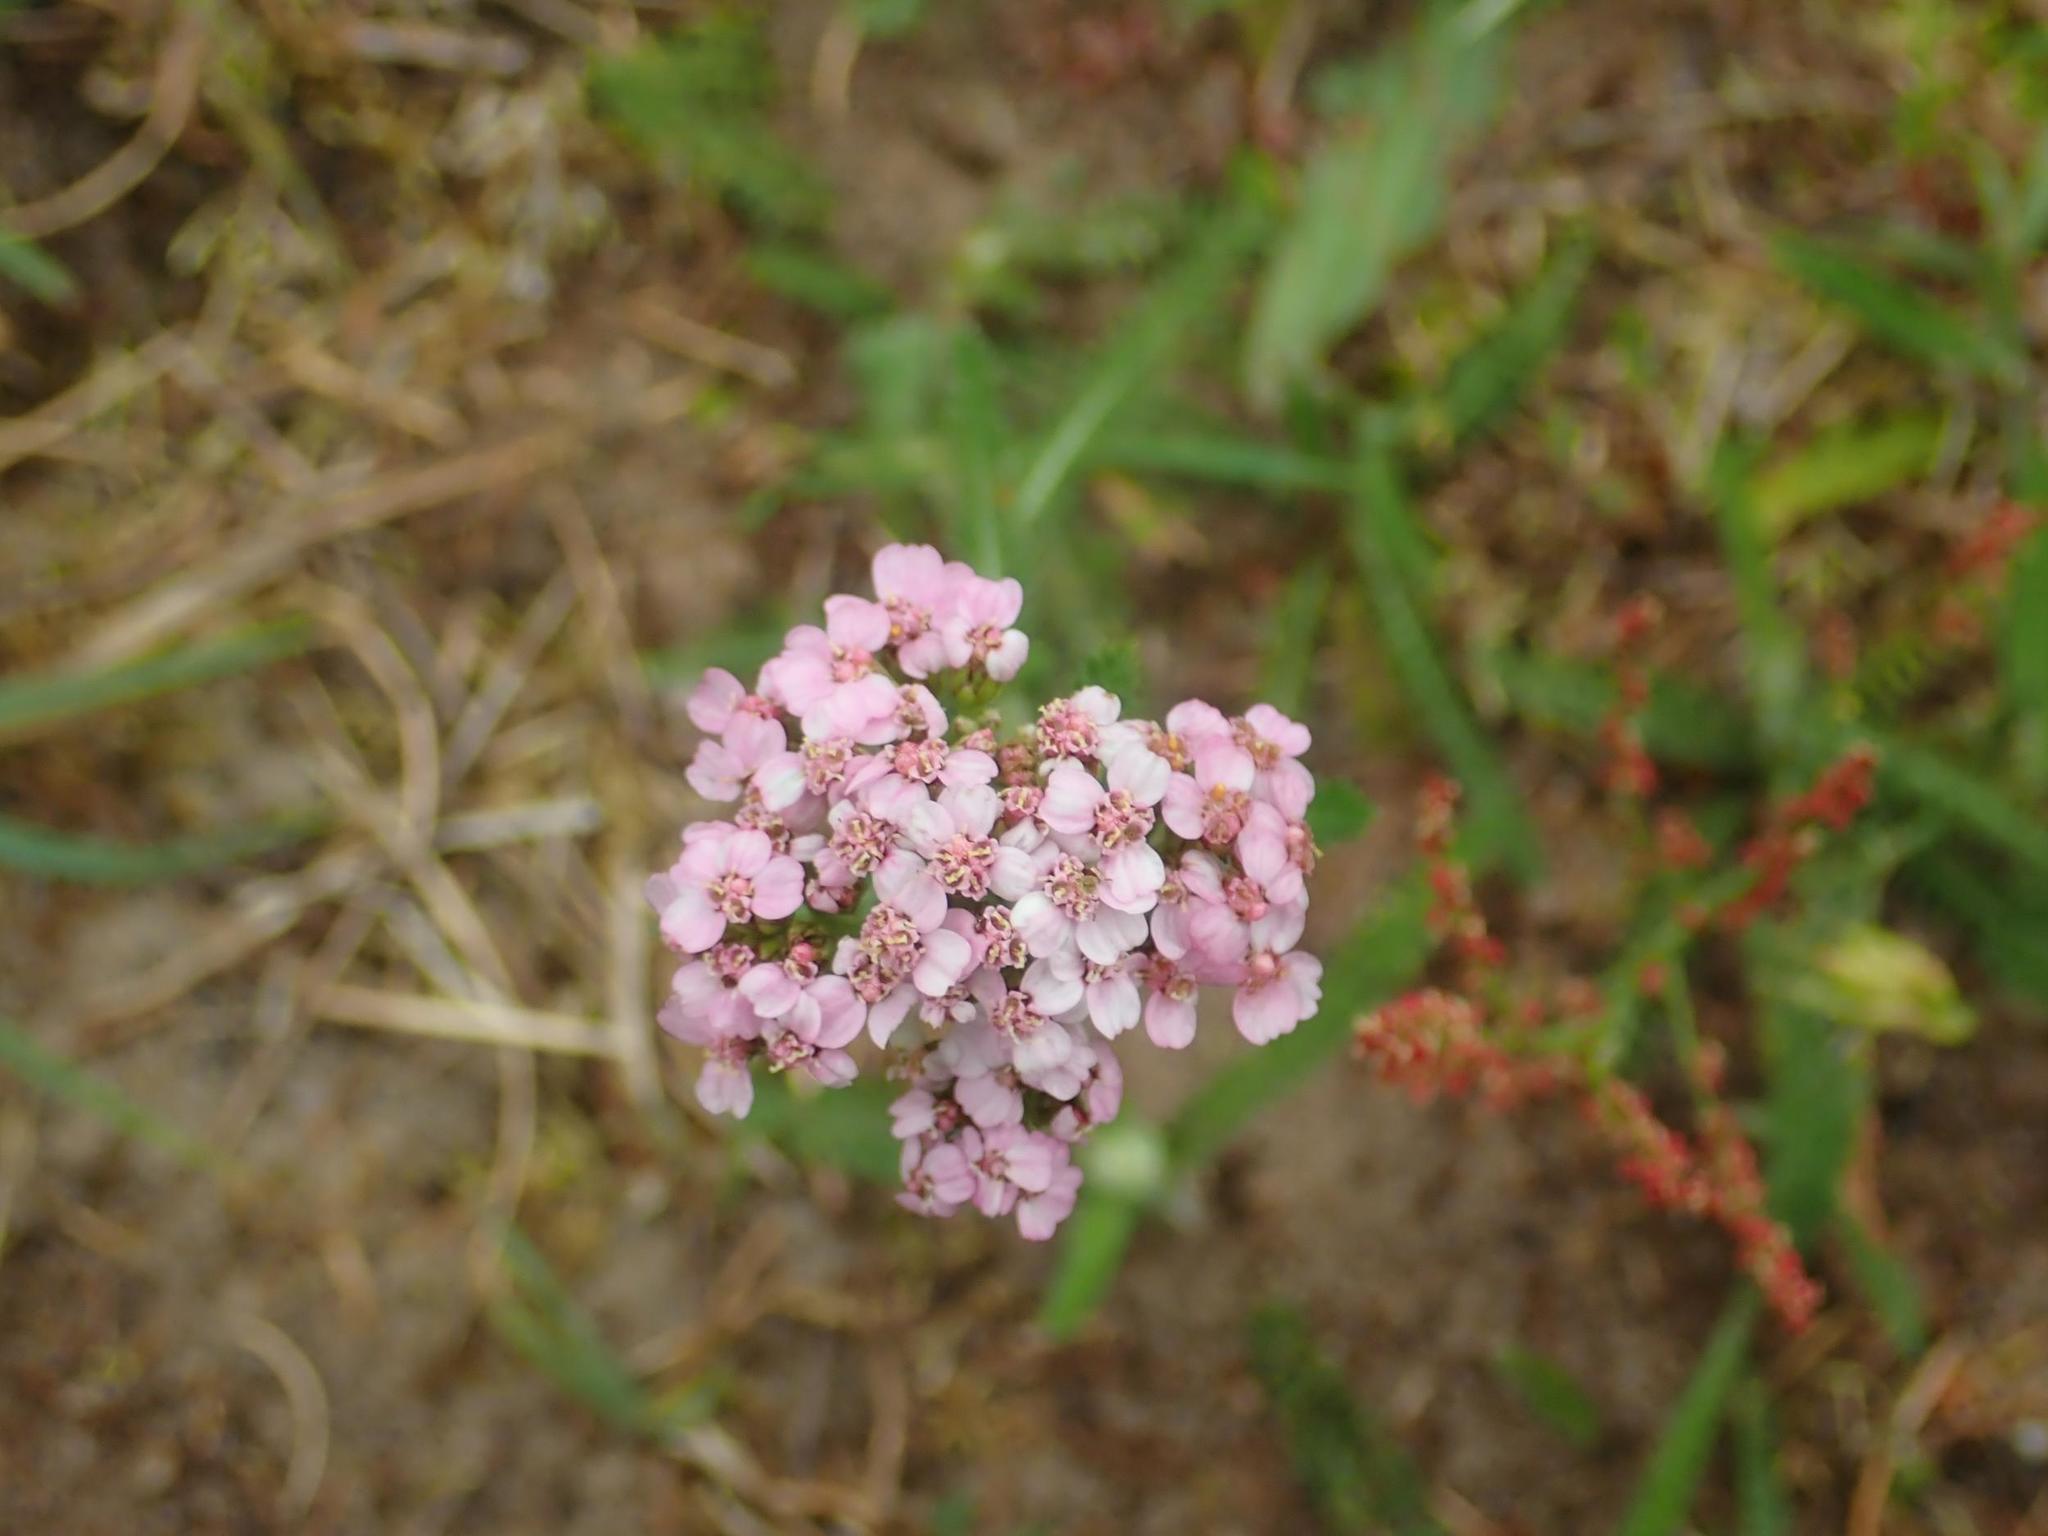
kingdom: Plantae
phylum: Tracheophyta
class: Magnoliopsida
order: Asterales
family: Asteraceae
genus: Achillea
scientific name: Achillea millefolium
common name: Yarrow
